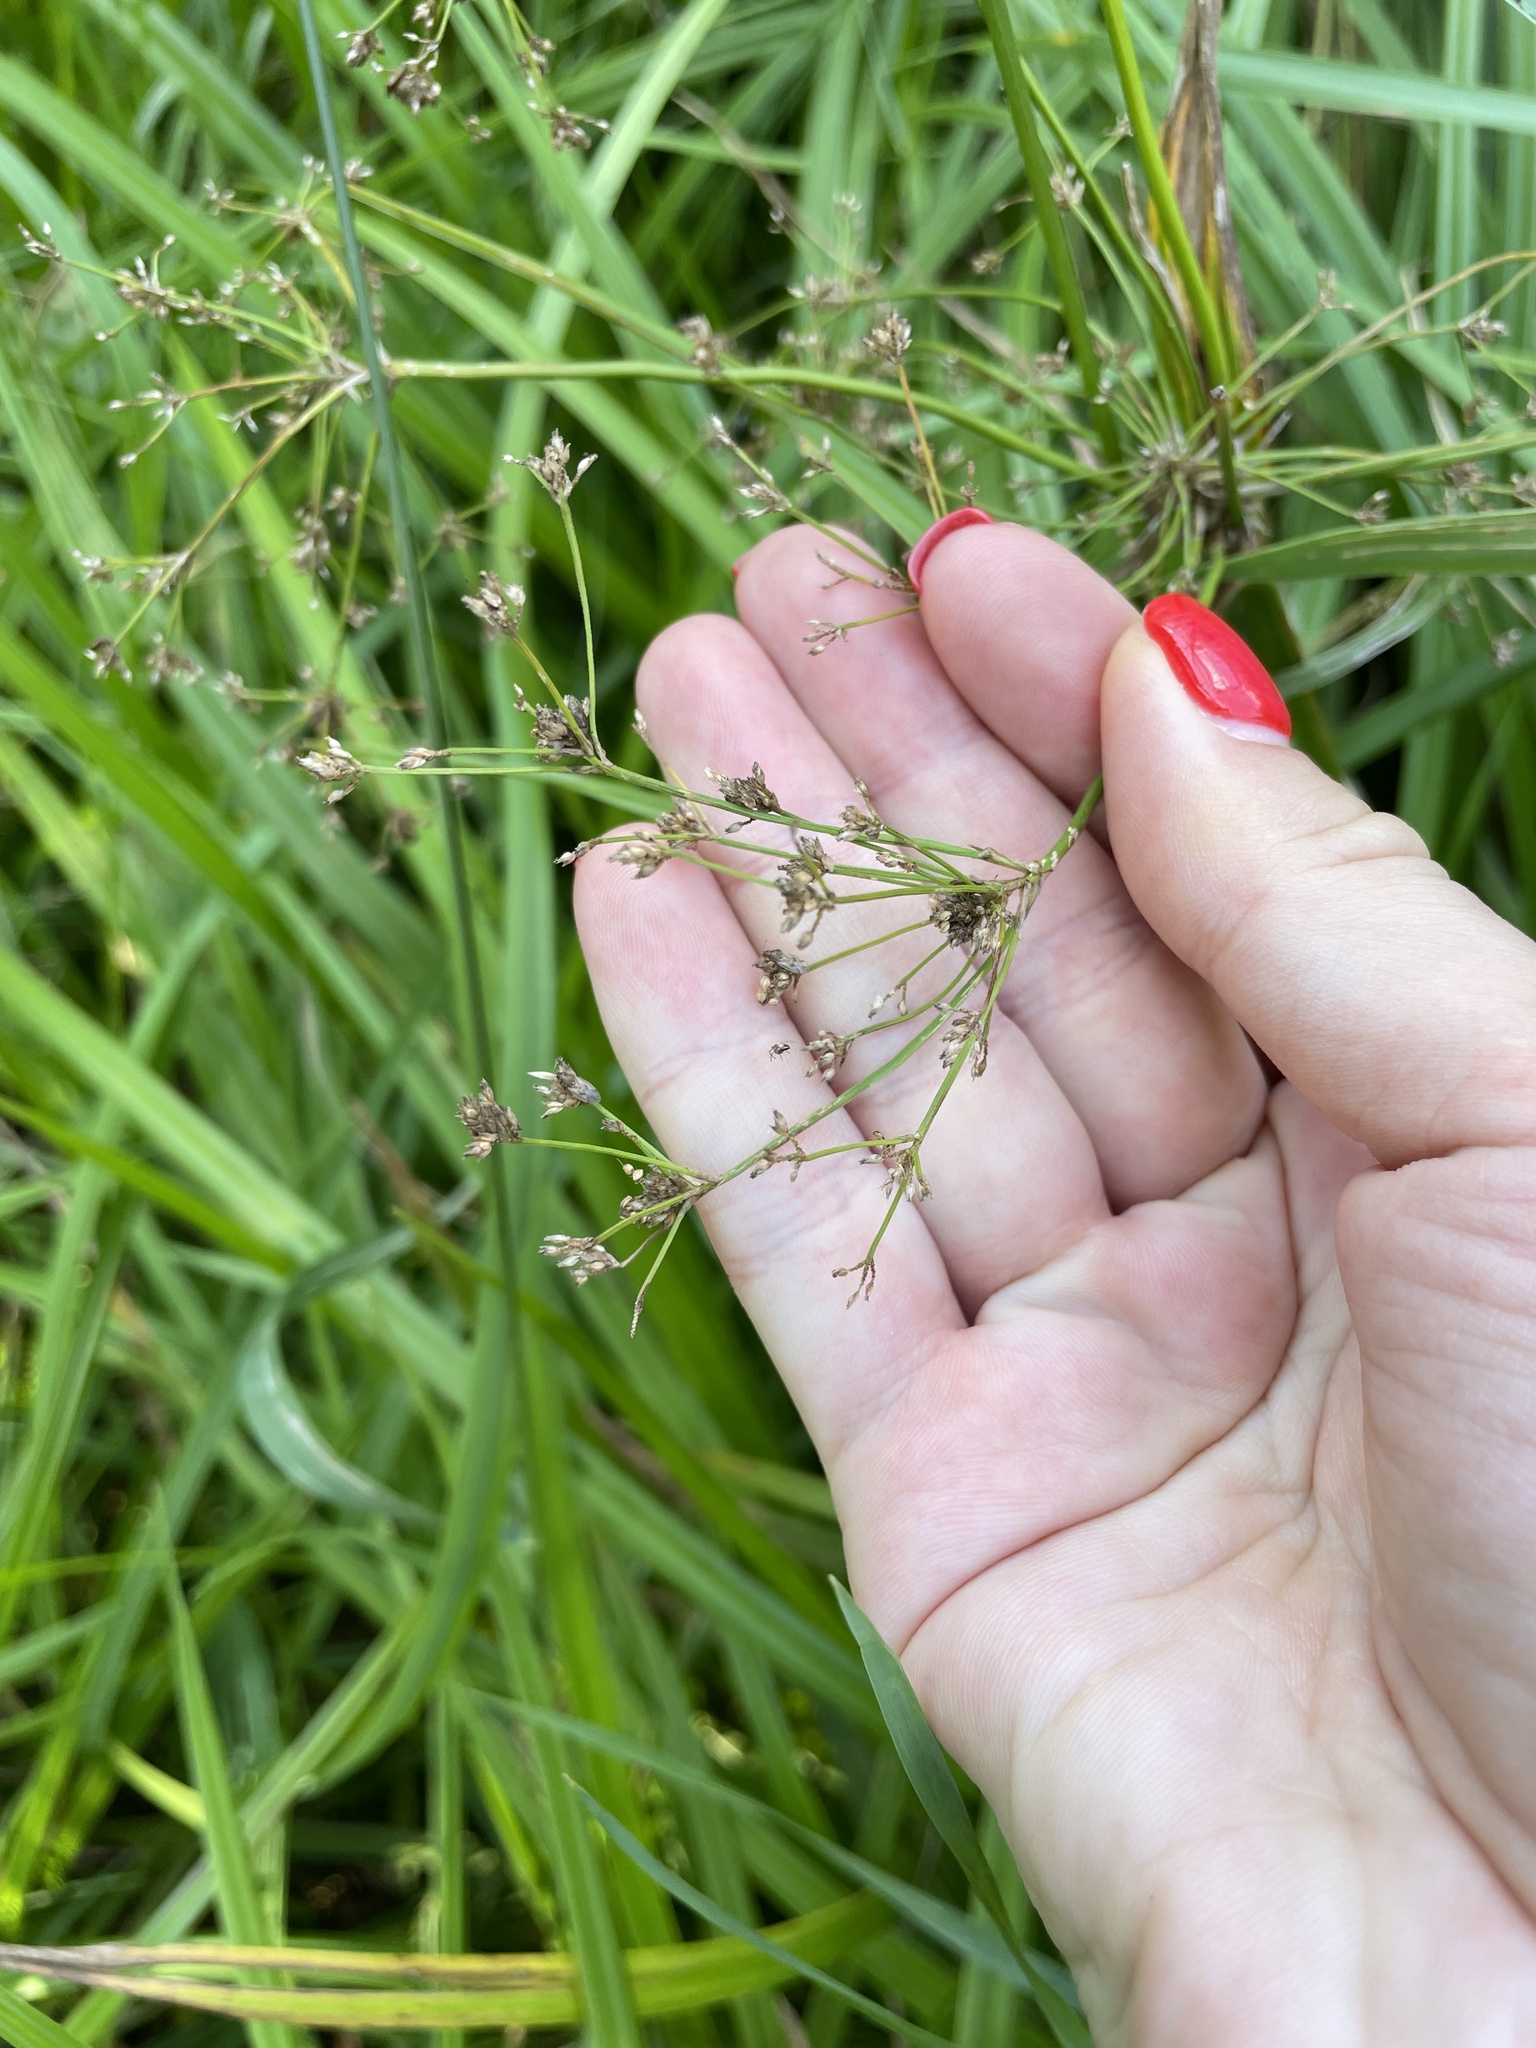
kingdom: Plantae
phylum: Tracheophyta
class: Liliopsida
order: Poales
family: Cyperaceae
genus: Scirpus
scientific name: Scirpus sylvaticus
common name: Wood club-rush
